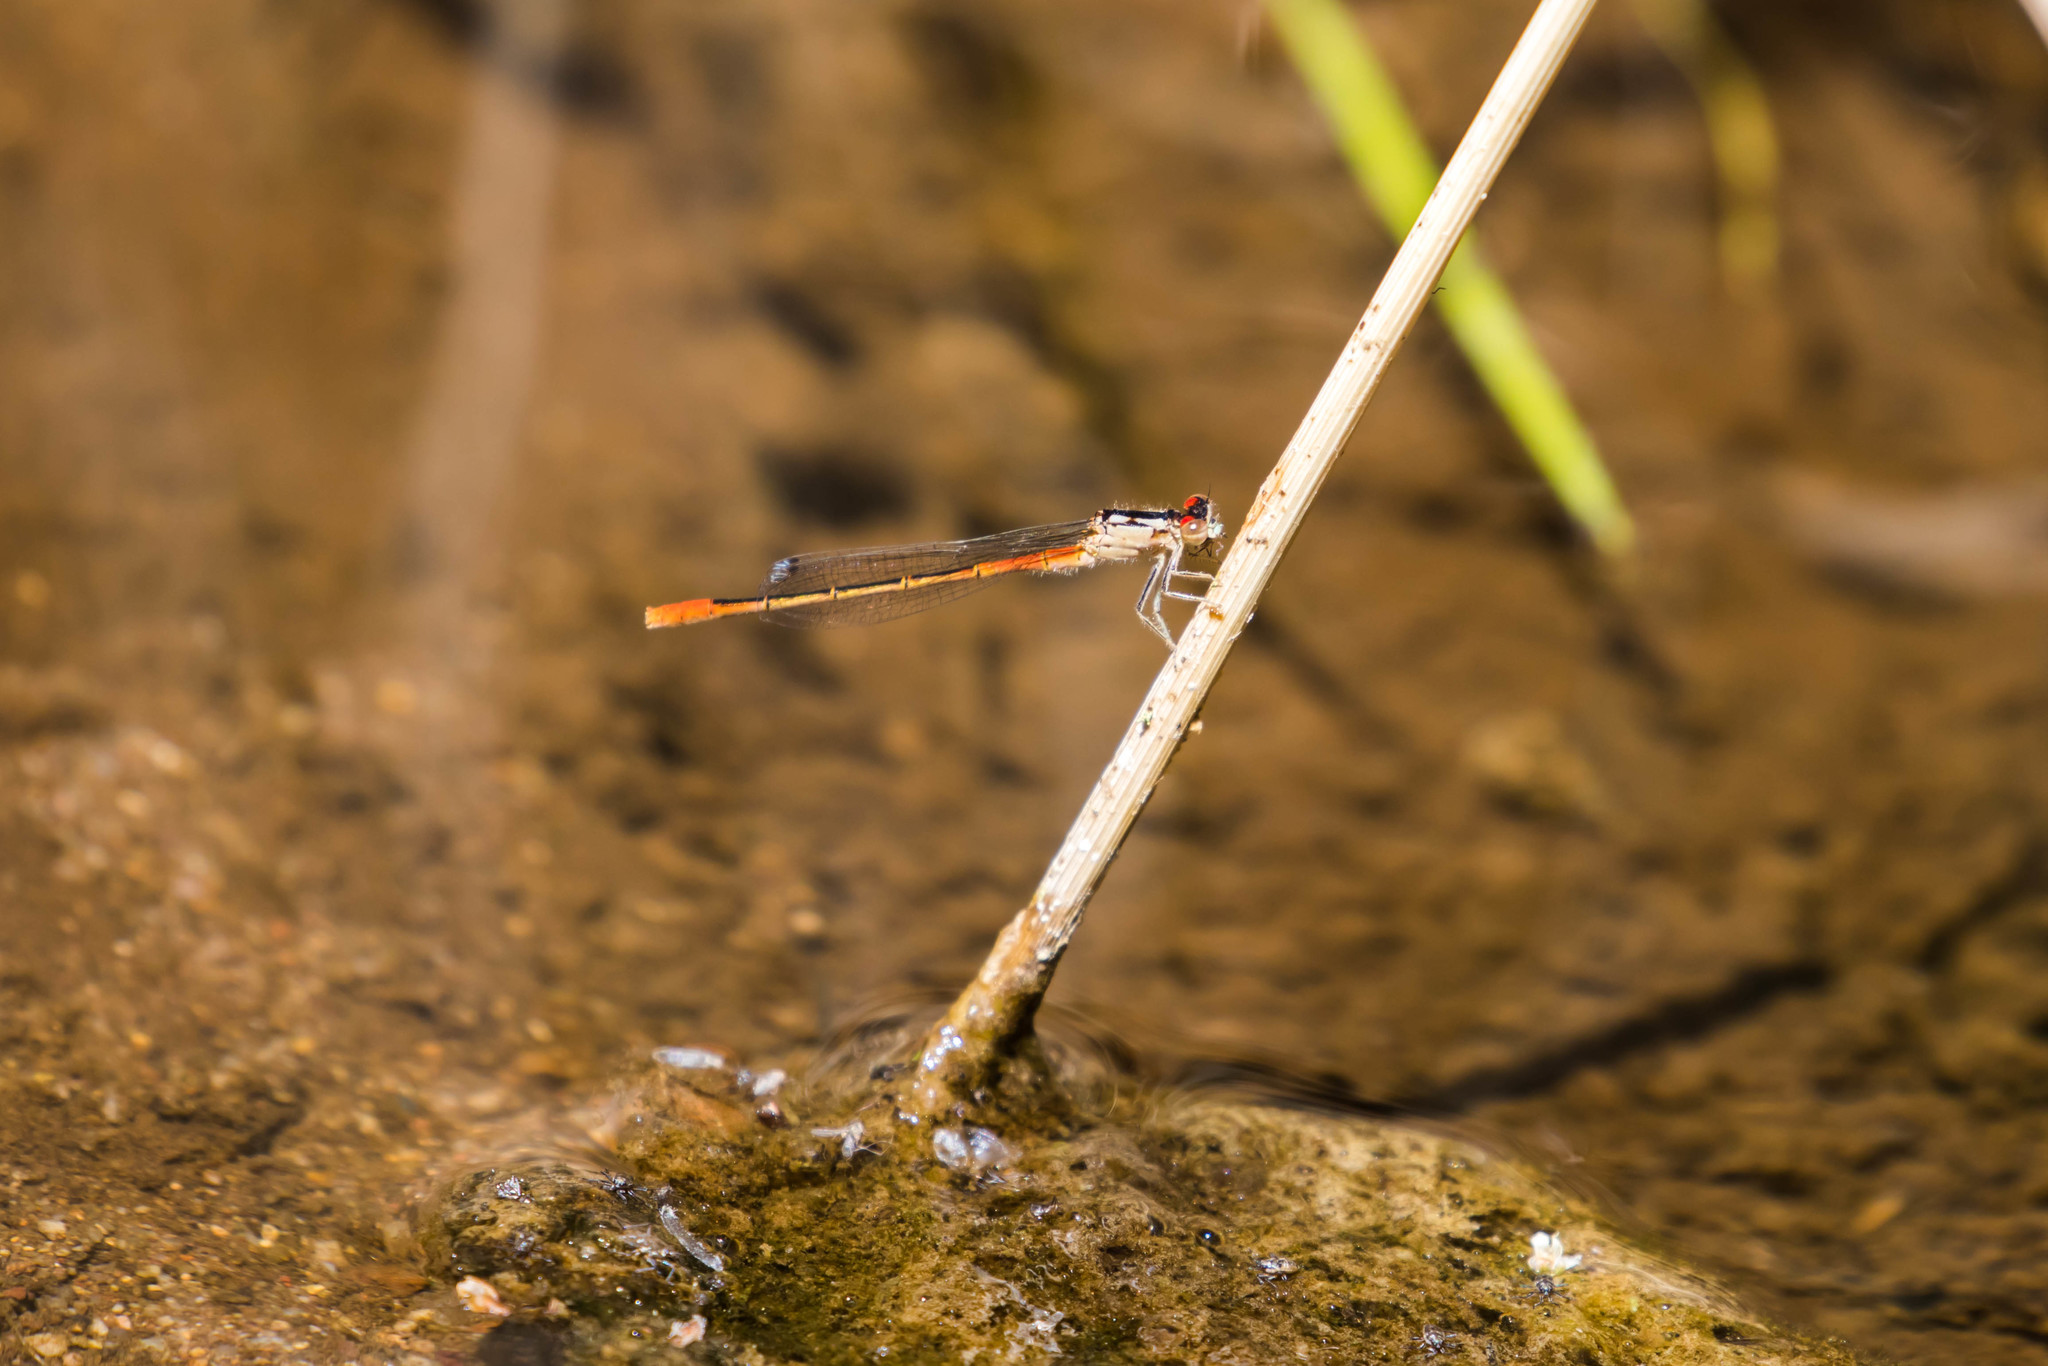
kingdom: Animalia
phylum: Arthropoda
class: Insecta
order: Odonata
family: Coenagrionidae
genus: Hesperagrion
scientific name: Hesperagrion heterodoxum
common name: Painted damsel
